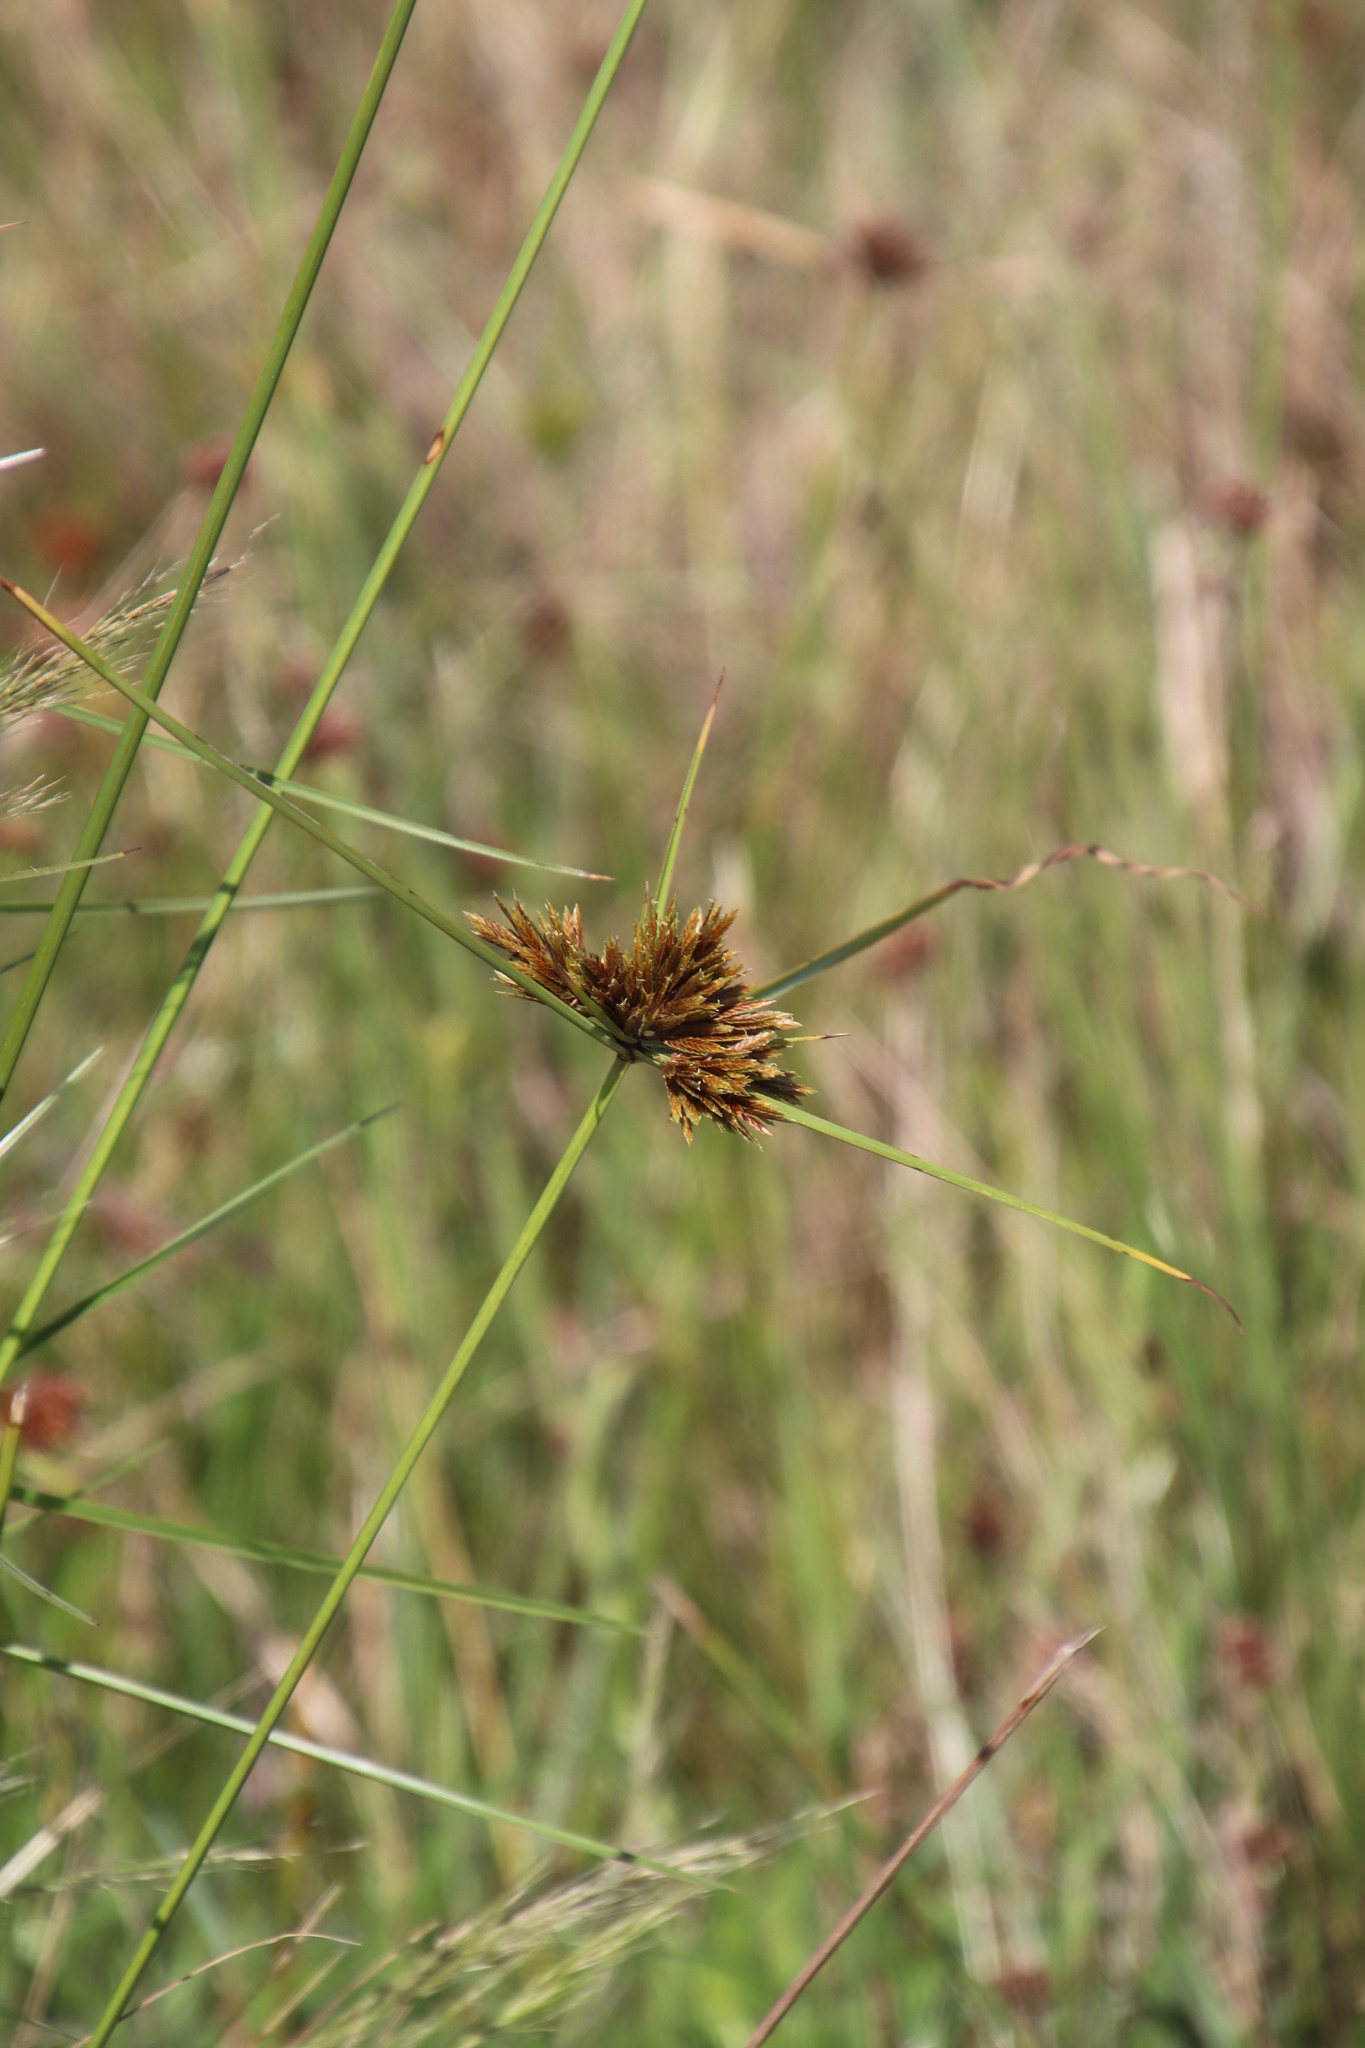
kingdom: Plantae
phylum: Tracheophyta
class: Liliopsida
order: Poales
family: Cyperaceae
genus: Cyperus
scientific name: Cyperus polystachyos
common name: Bunchy flat sedge
